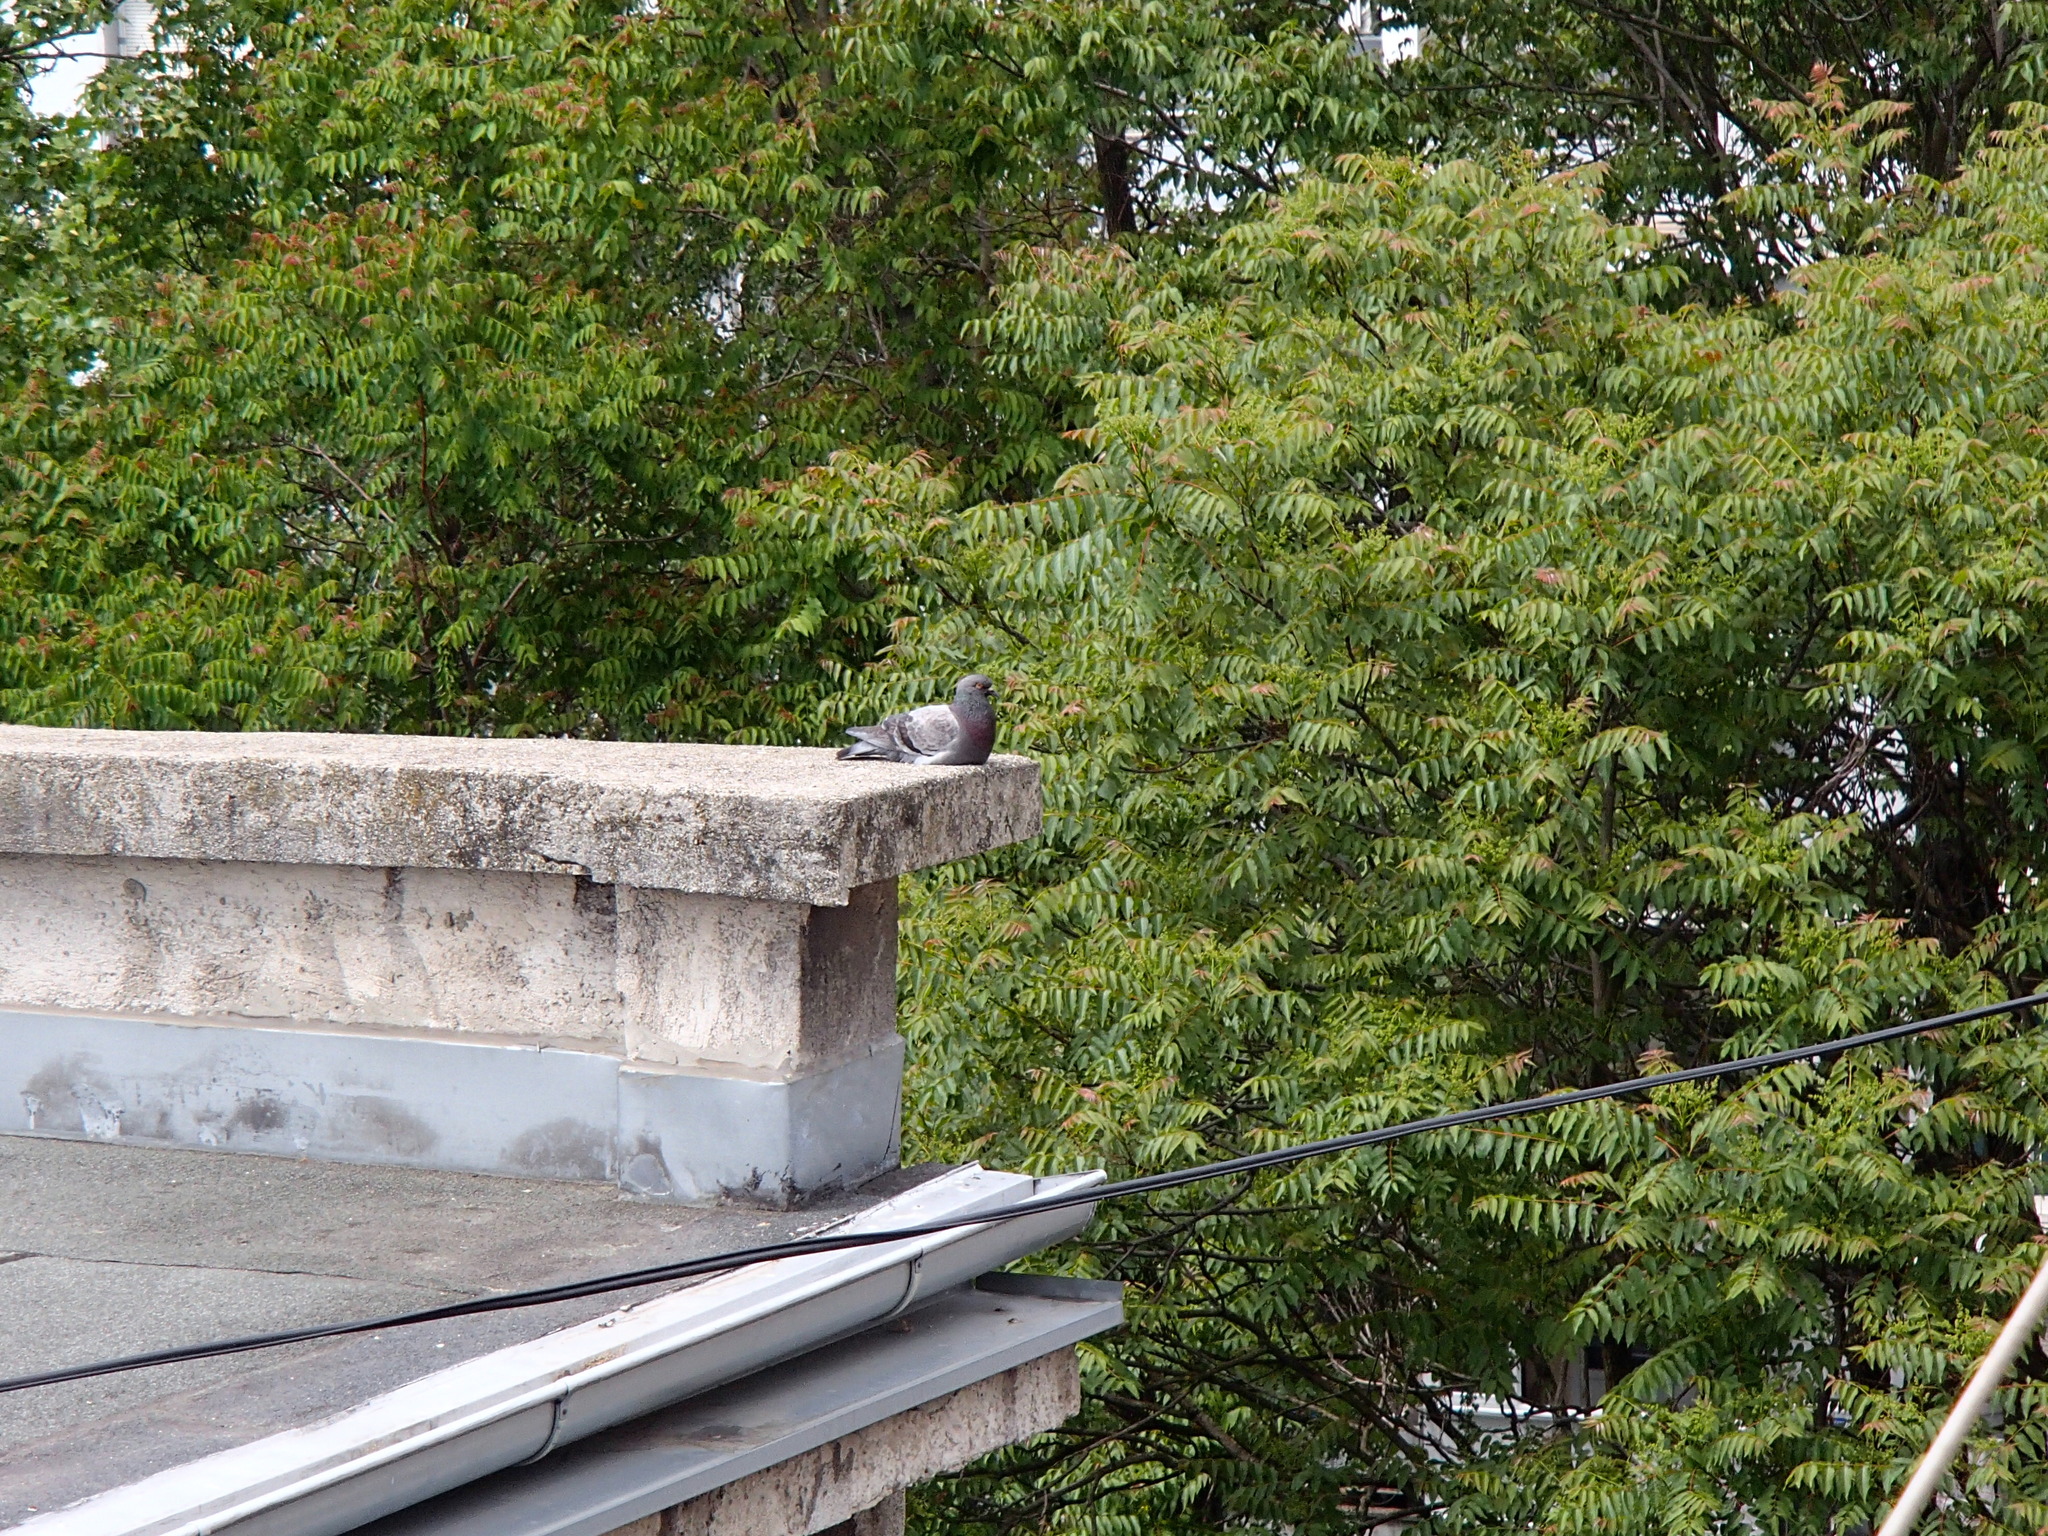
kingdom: Animalia
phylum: Chordata
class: Aves
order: Columbiformes
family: Columbidae
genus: Columba
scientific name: Columba livia
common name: Rock pigeon
